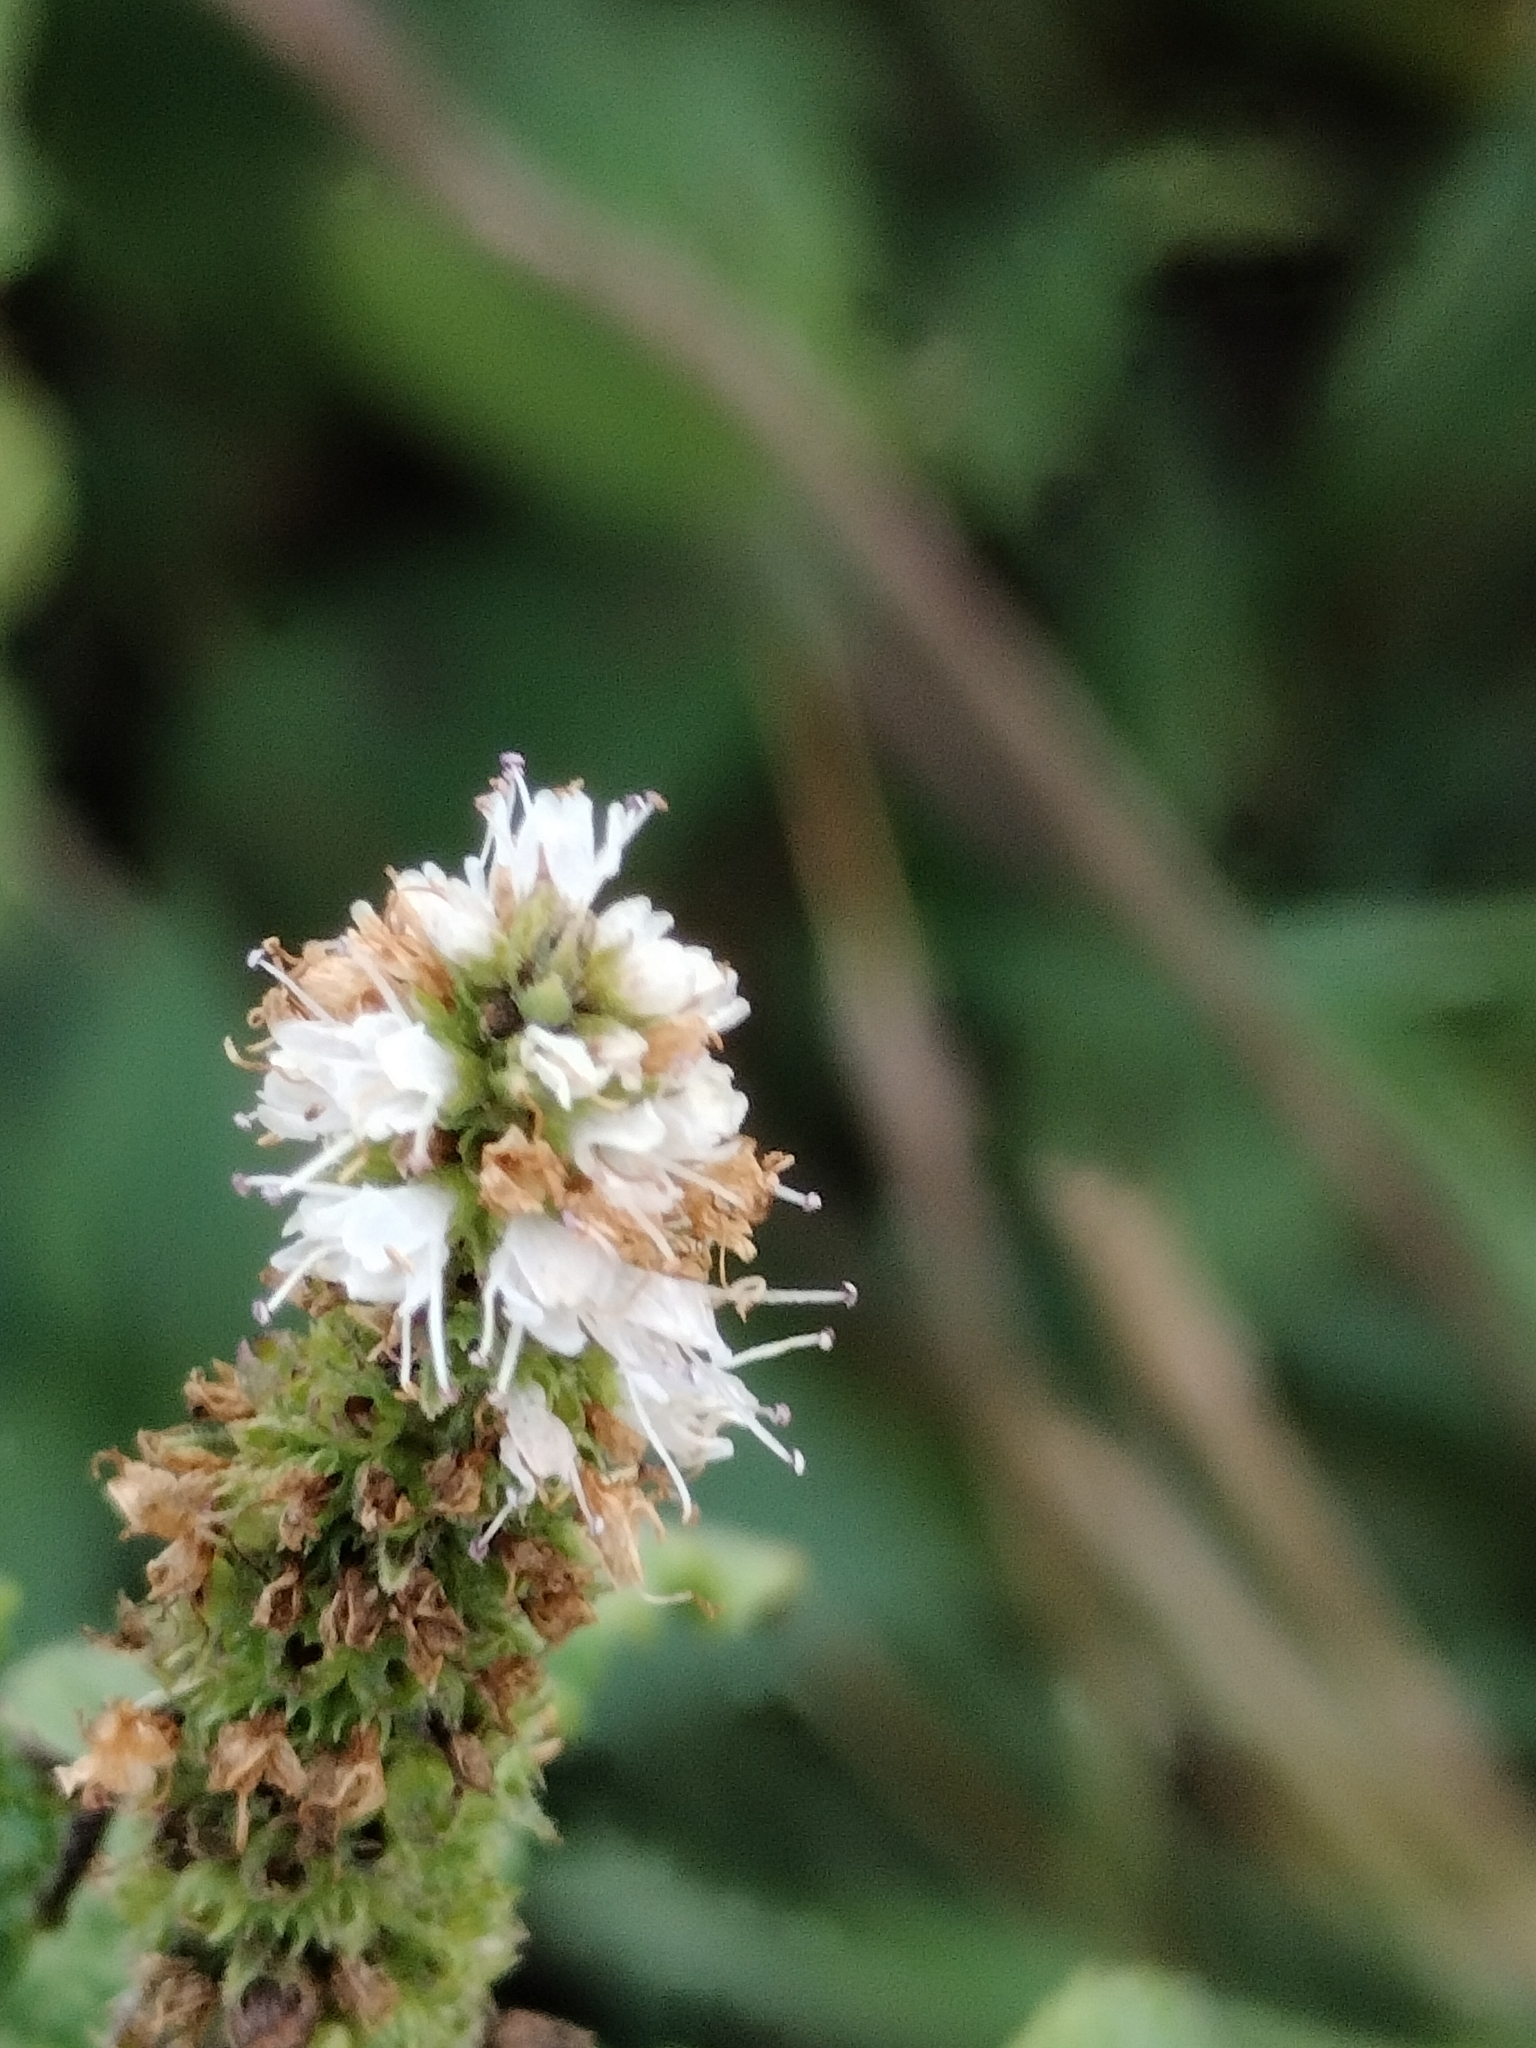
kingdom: Plantae
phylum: Tracheophyta
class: Magnoliopsida
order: Lamiales
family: Lamiaceae
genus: Mentha
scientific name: Mentha suaveolens
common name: Apple mint
